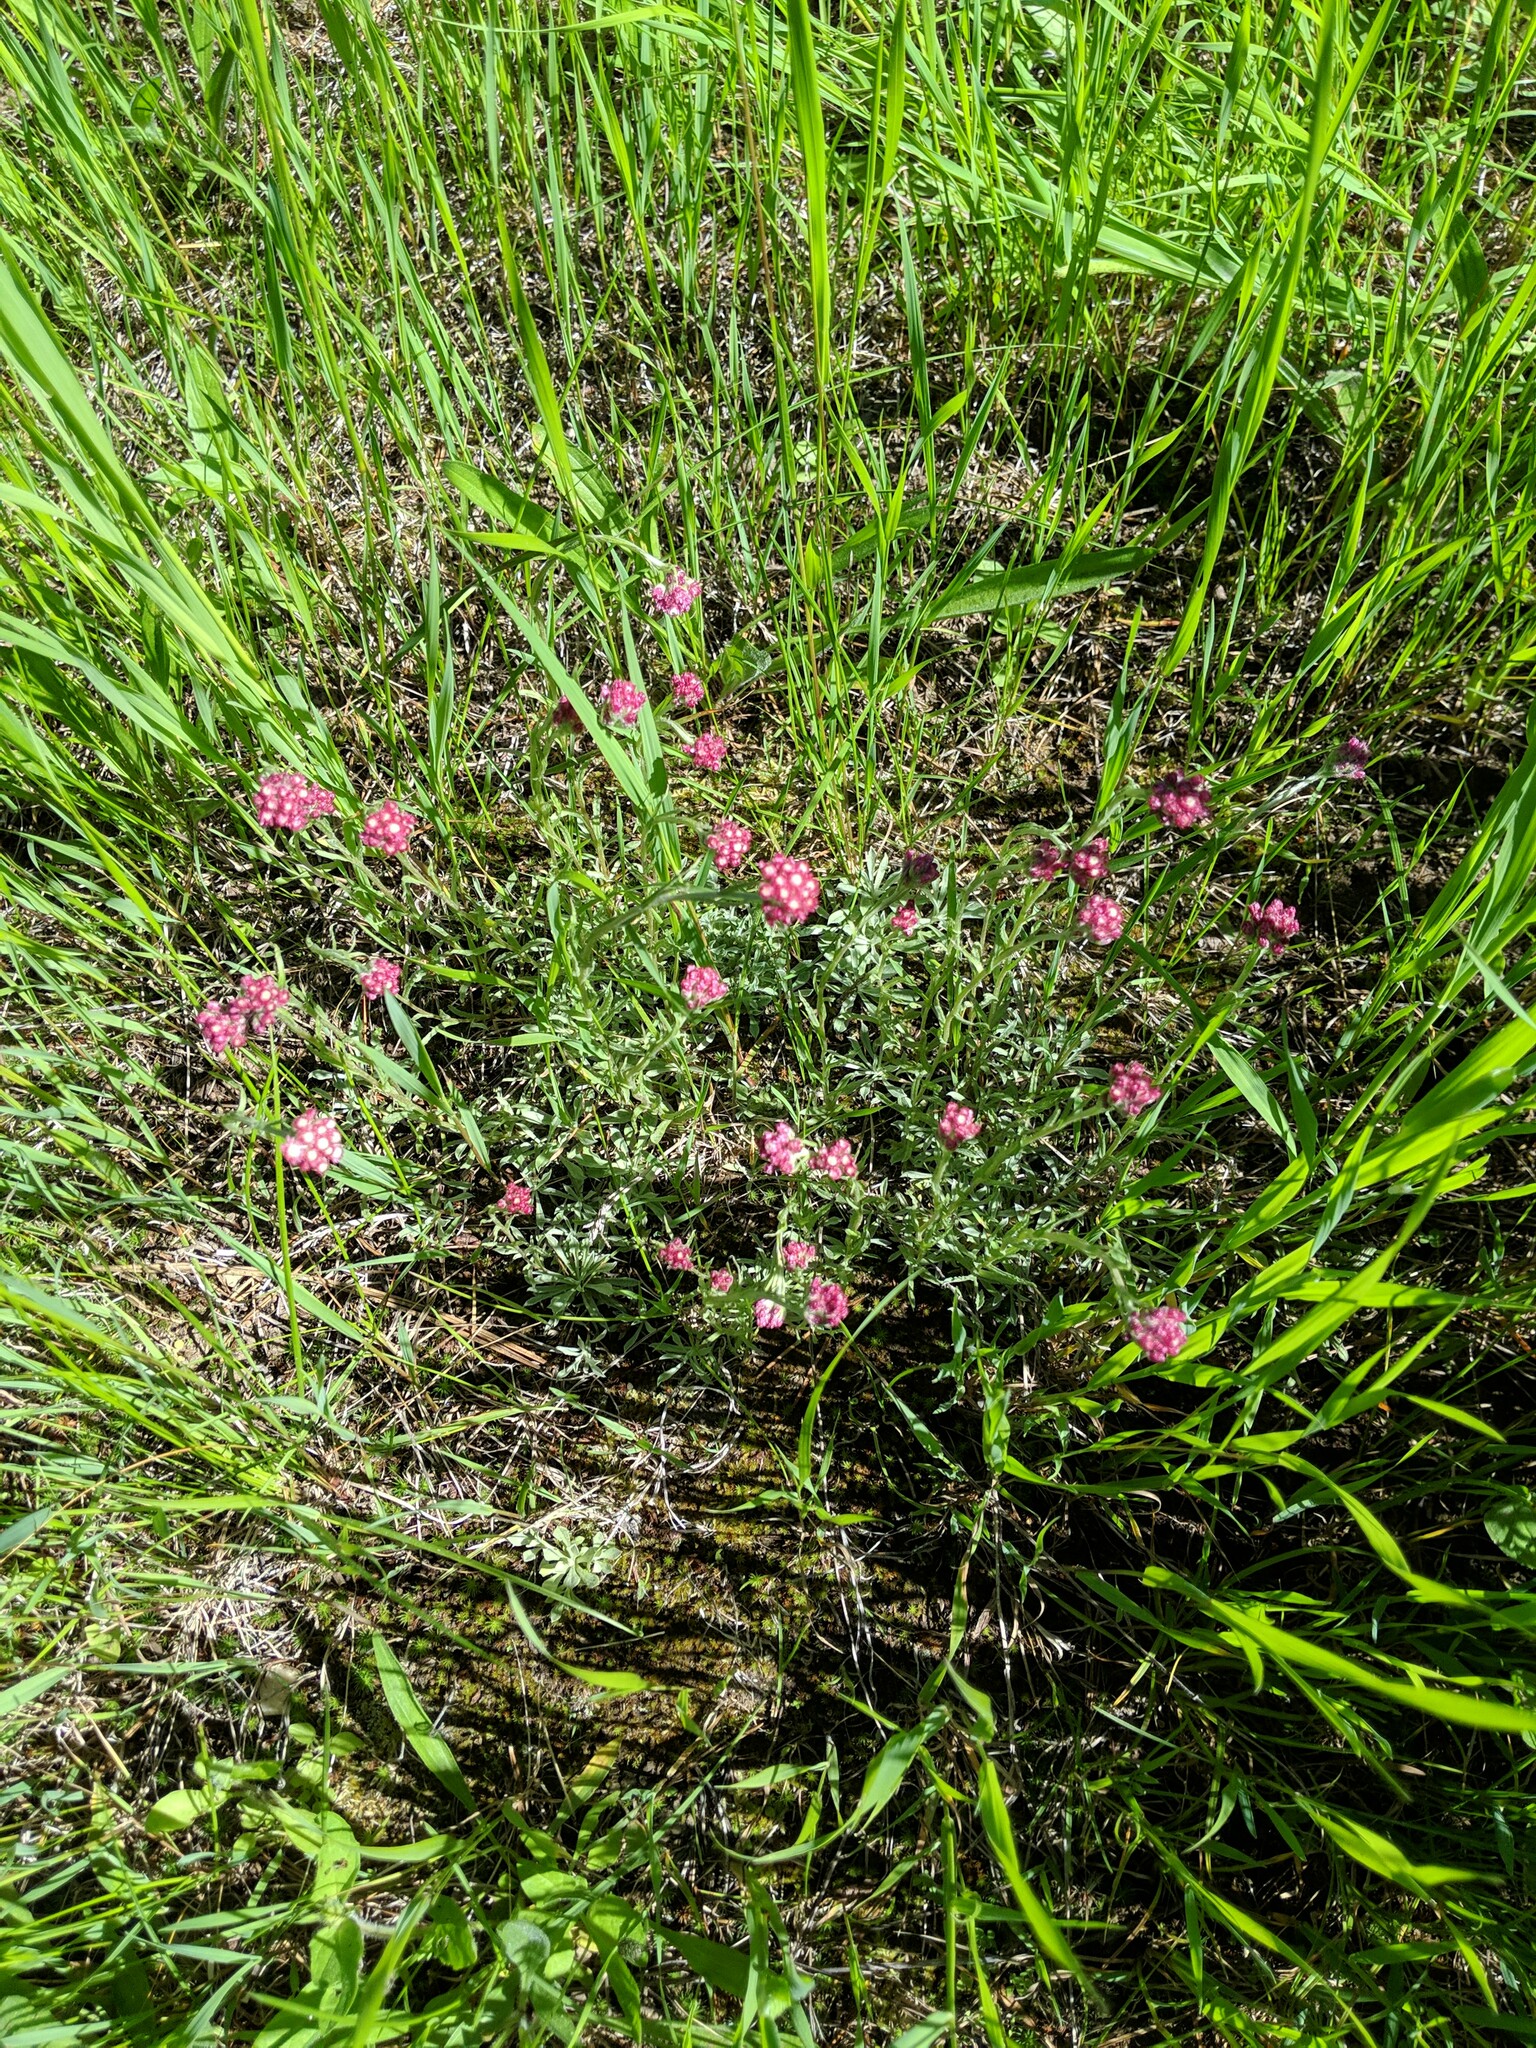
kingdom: Plantae
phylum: Tracheophyta
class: Magnoliopsida
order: Asterales
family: Asteraceae
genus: Antennaria
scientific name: Antennaria rosea
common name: Rosy pussytoes
